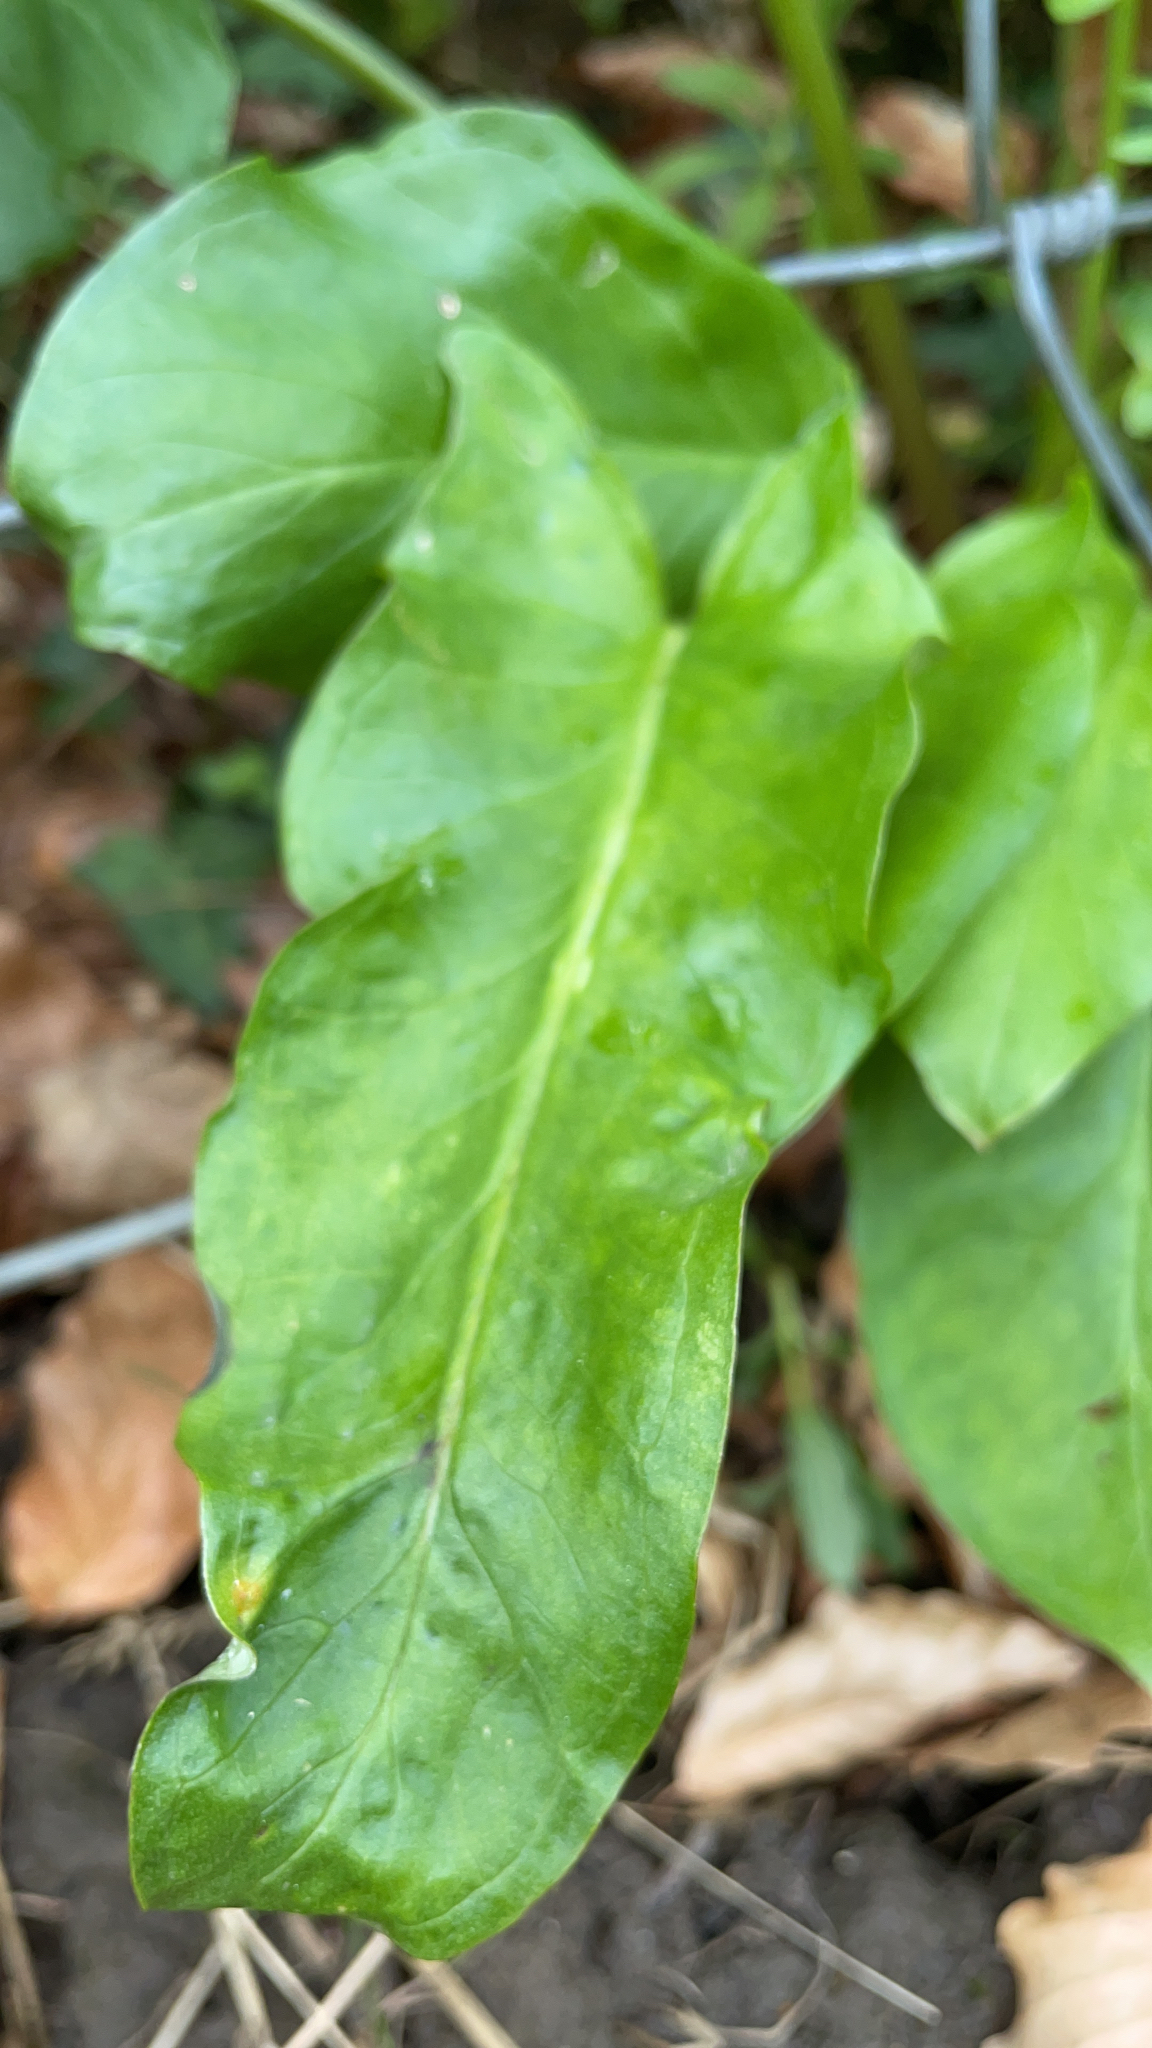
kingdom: Plantae
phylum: Tracheophyta
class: Liliopsida
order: Alismatales
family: Araceae
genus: Arum
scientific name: Arum maculatum
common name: Lords-and-ladies
